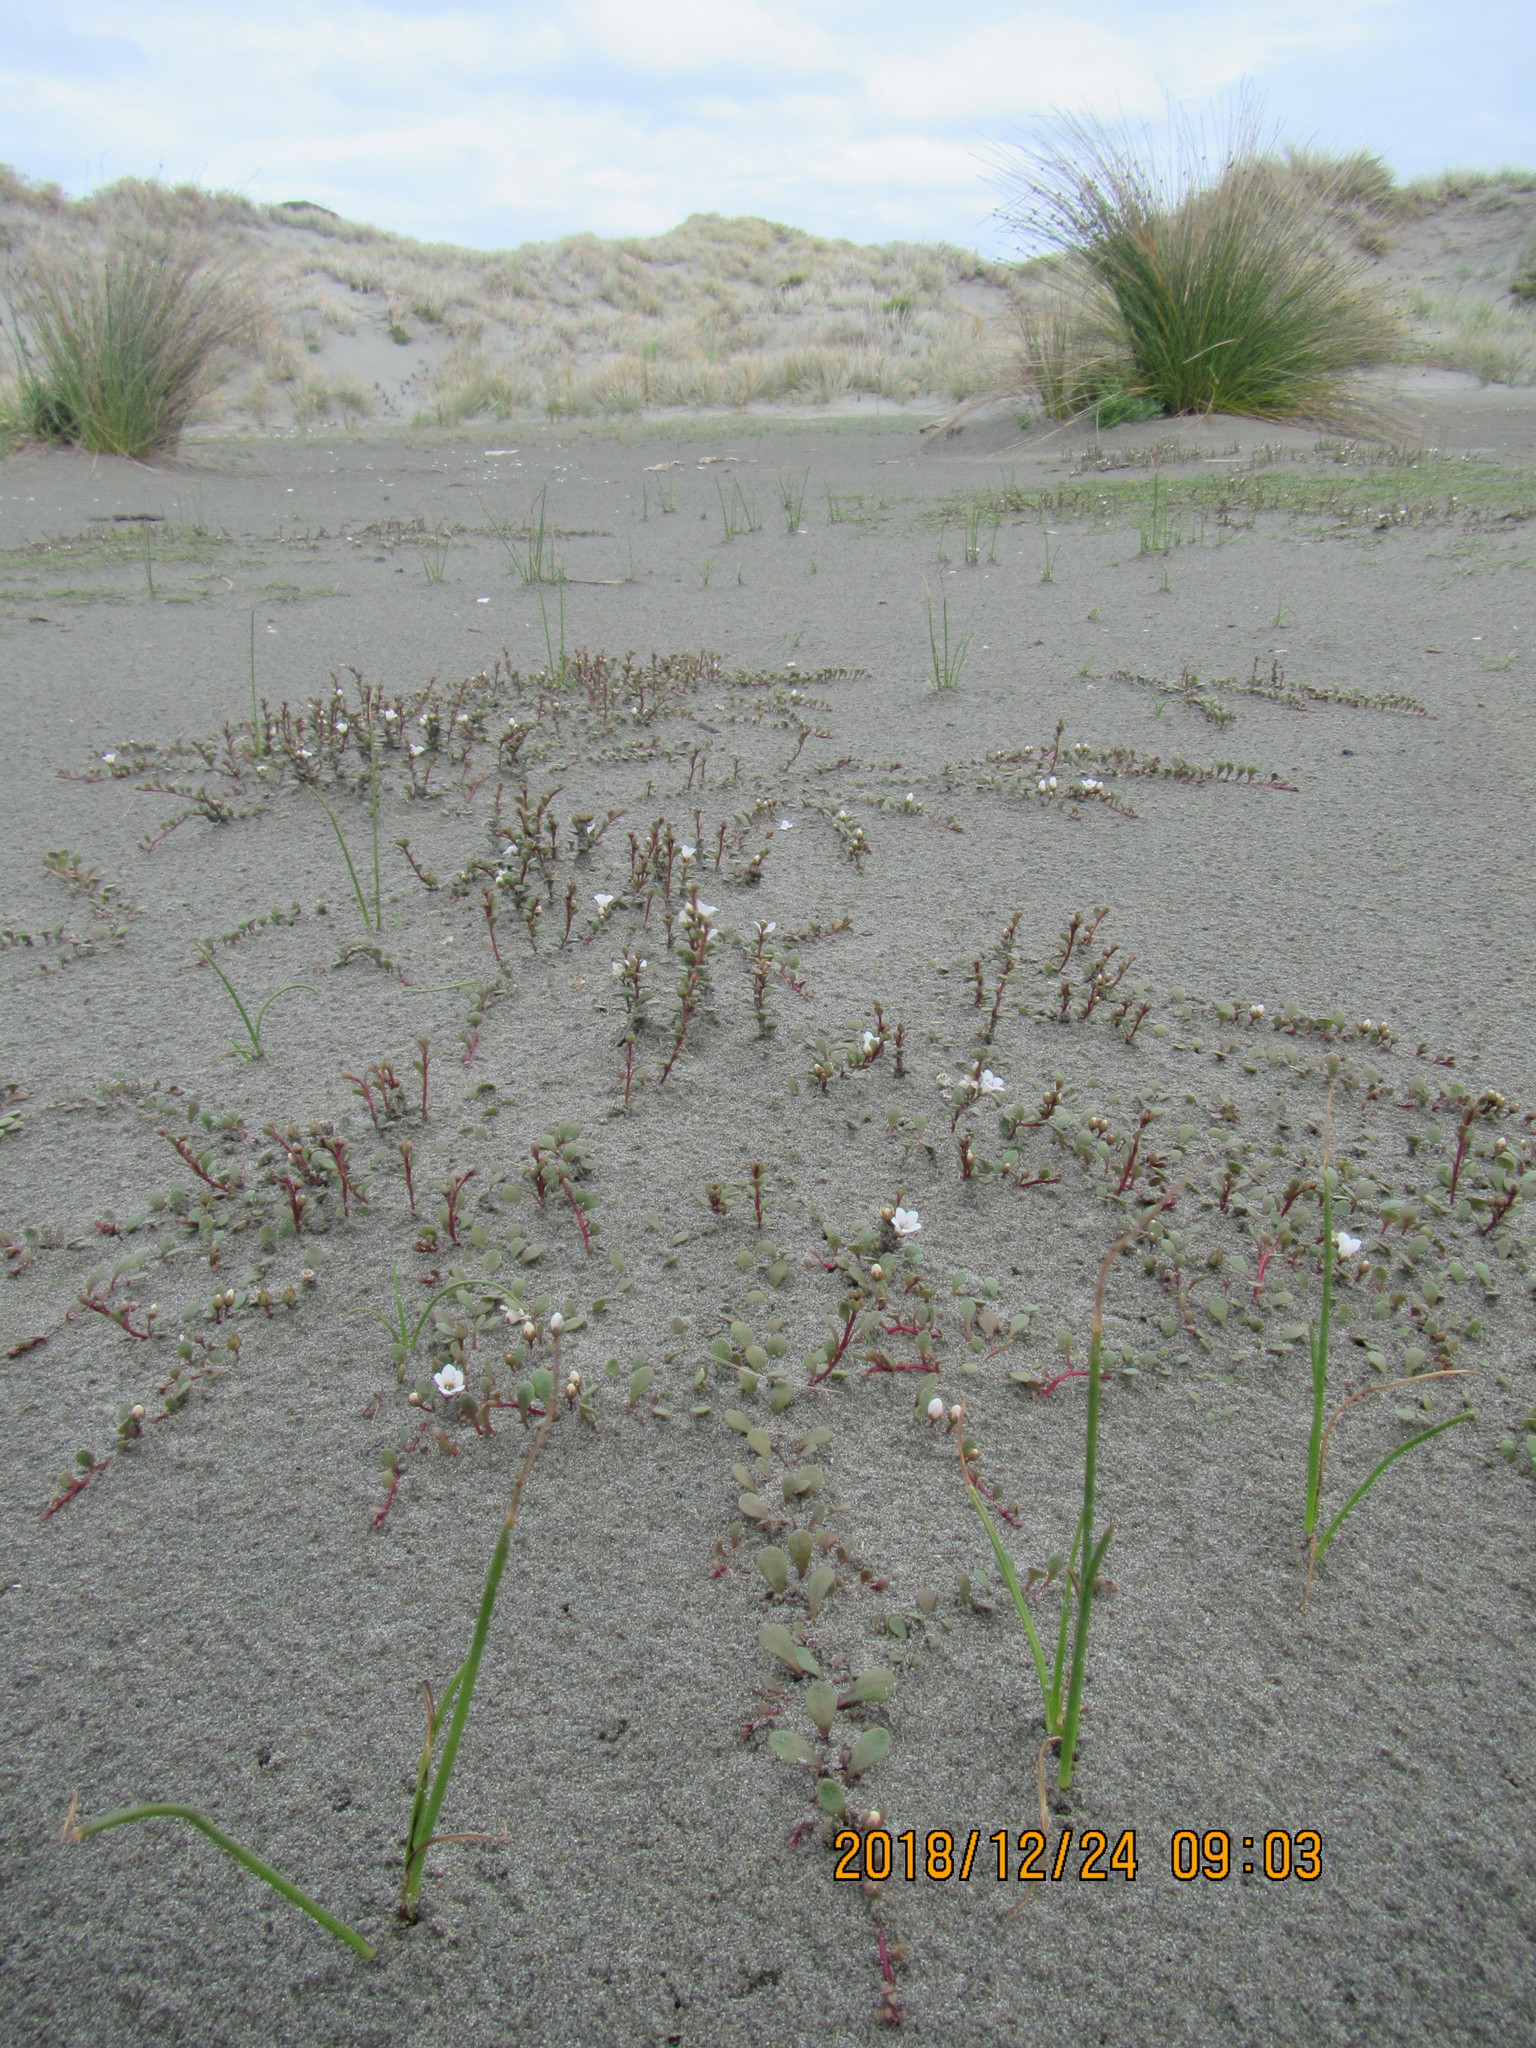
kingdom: Plantae
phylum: Tracheophyta
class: Magnoliopsida
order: Ericales
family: Primulaceae
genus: Samolus
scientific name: Samolus repens
